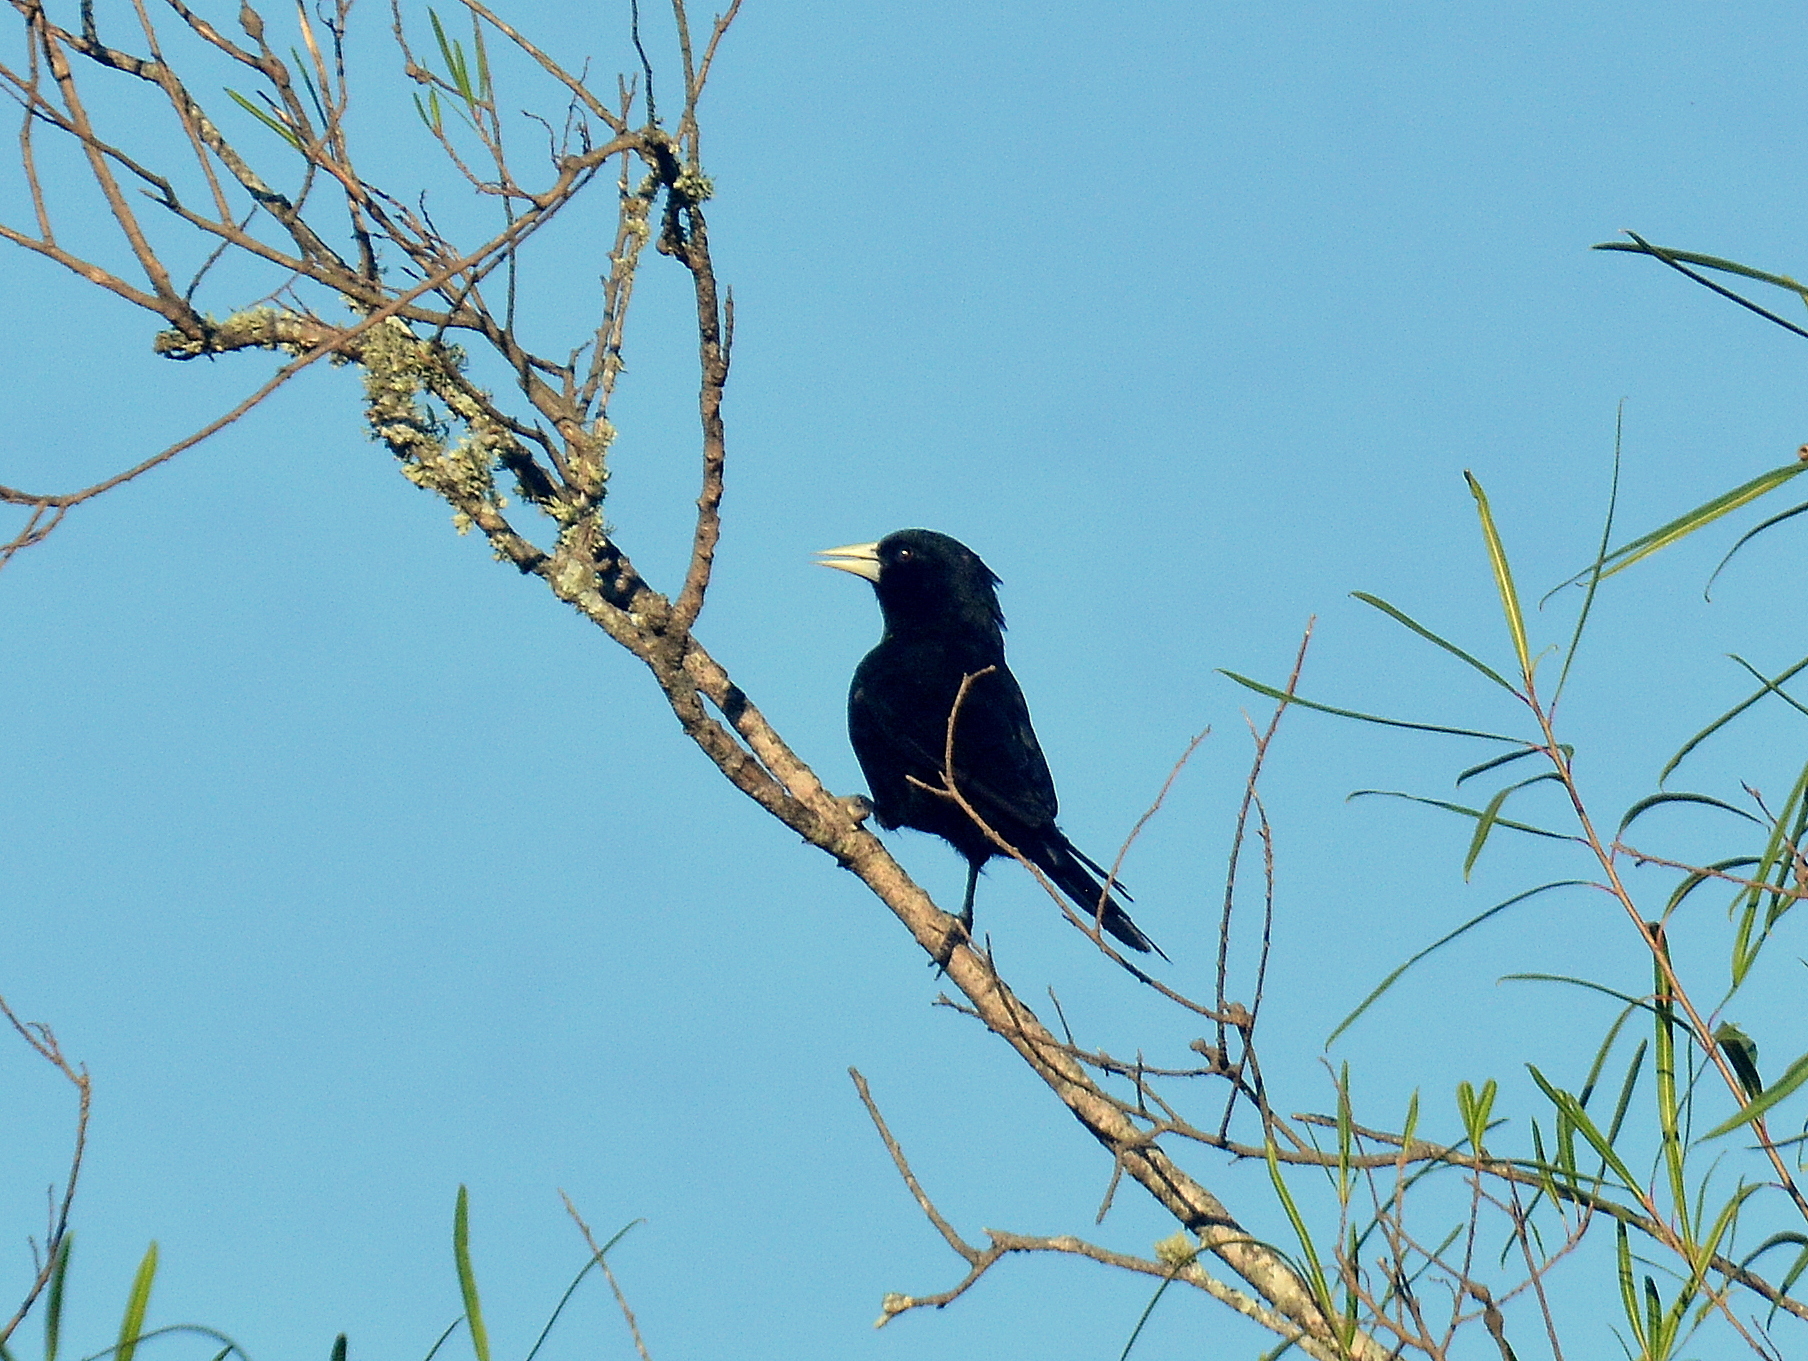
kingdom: Animalia
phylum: Chordata
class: Aves
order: Passeriformes
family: Icteridae
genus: Cacicus
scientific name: Cacicus solitarius
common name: Solitary cacique
